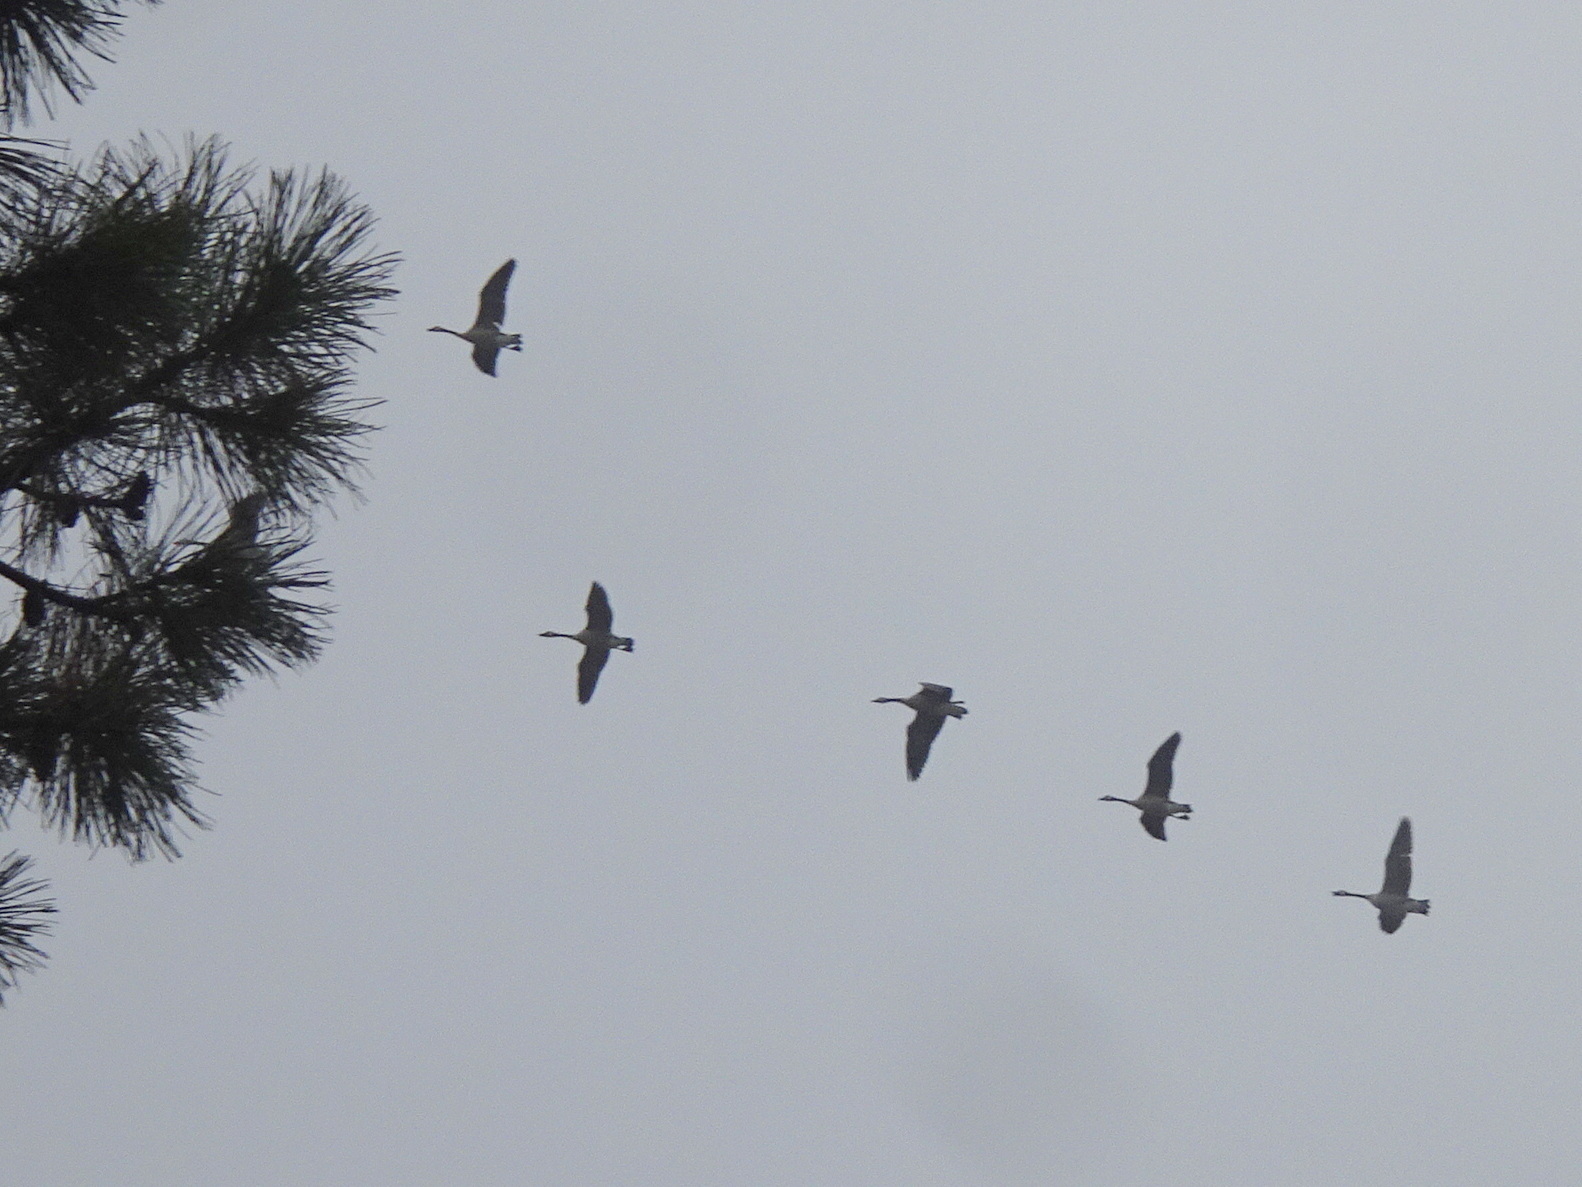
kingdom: Animalia
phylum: Chordata
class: Aves
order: Anseriformes
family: Anatidae
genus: Branta
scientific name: Branta canadensis
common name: Canada goose
